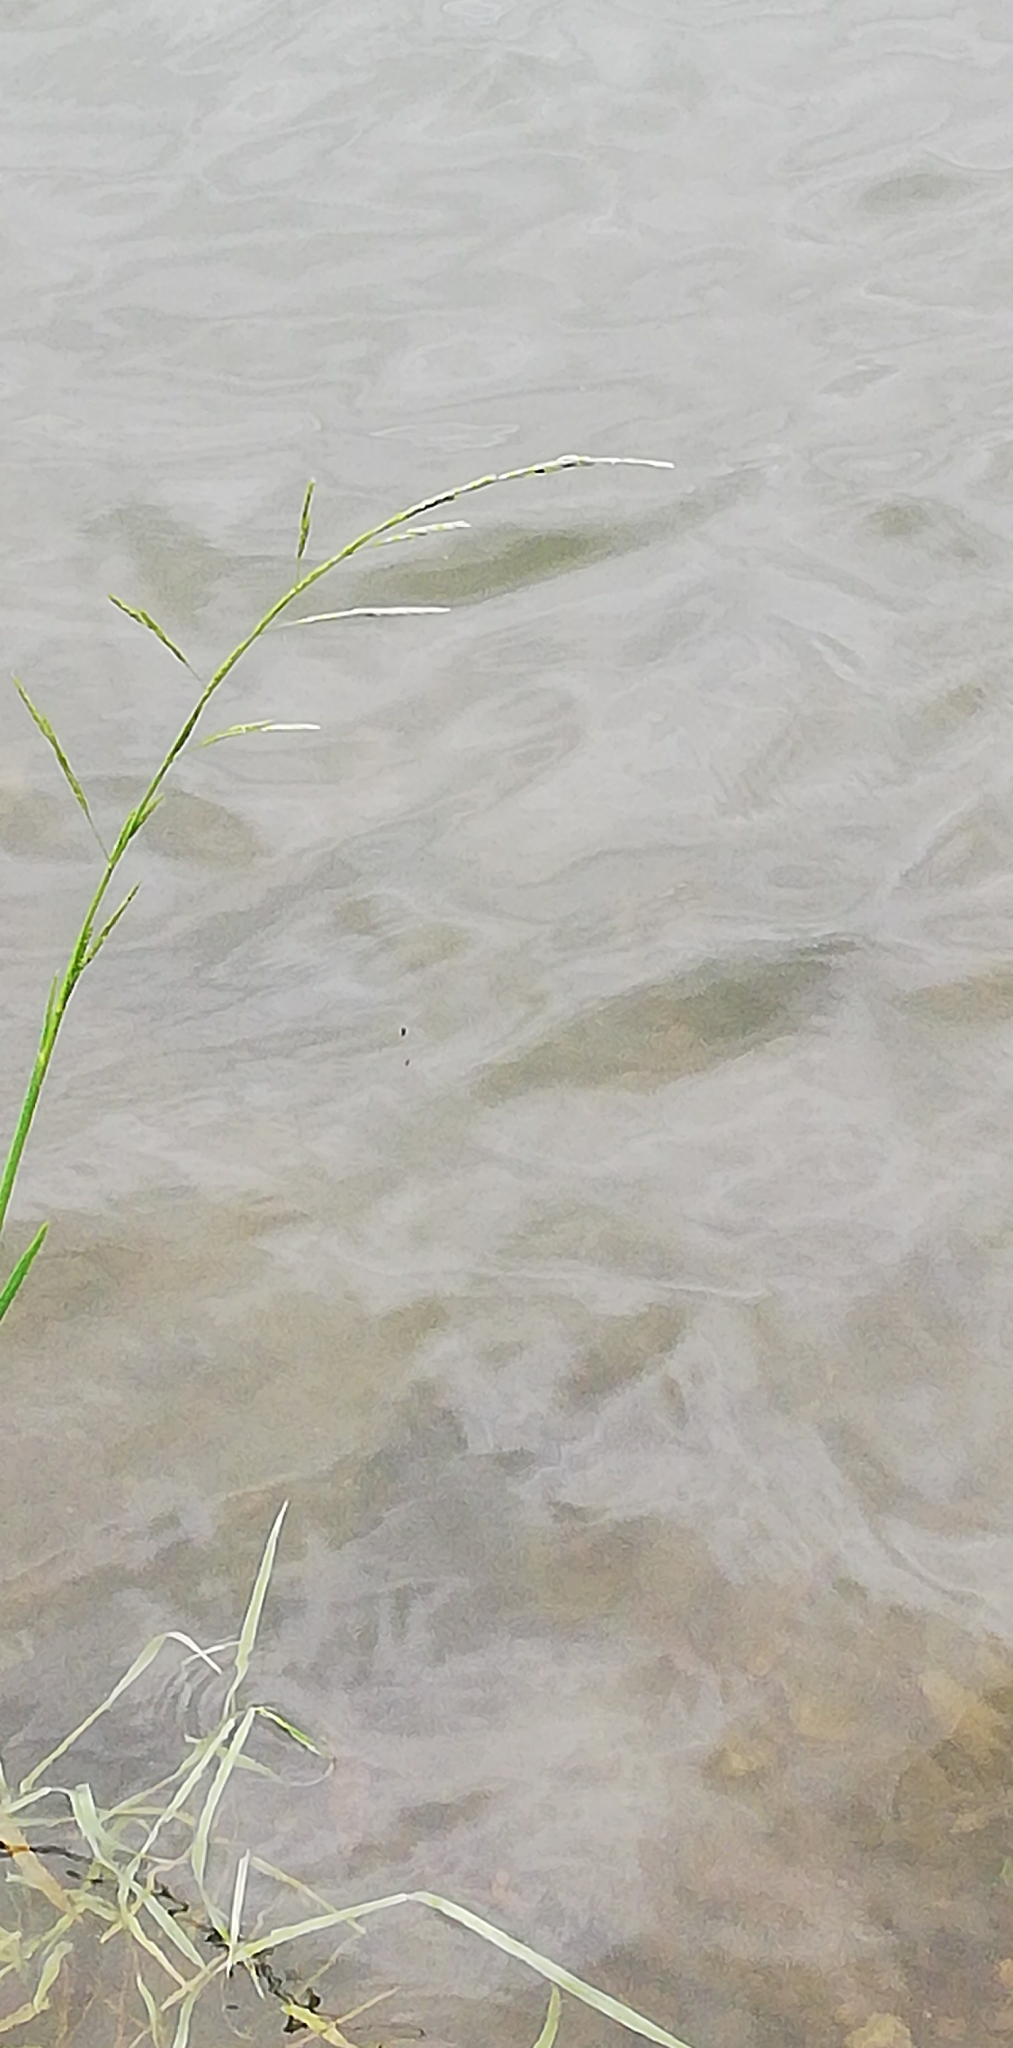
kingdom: Plantae
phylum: Tracheophyta
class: Liliopsida
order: Poales
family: Poaceae
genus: Glyceria
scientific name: Glyceria fluitans
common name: Floating sweet-grass
